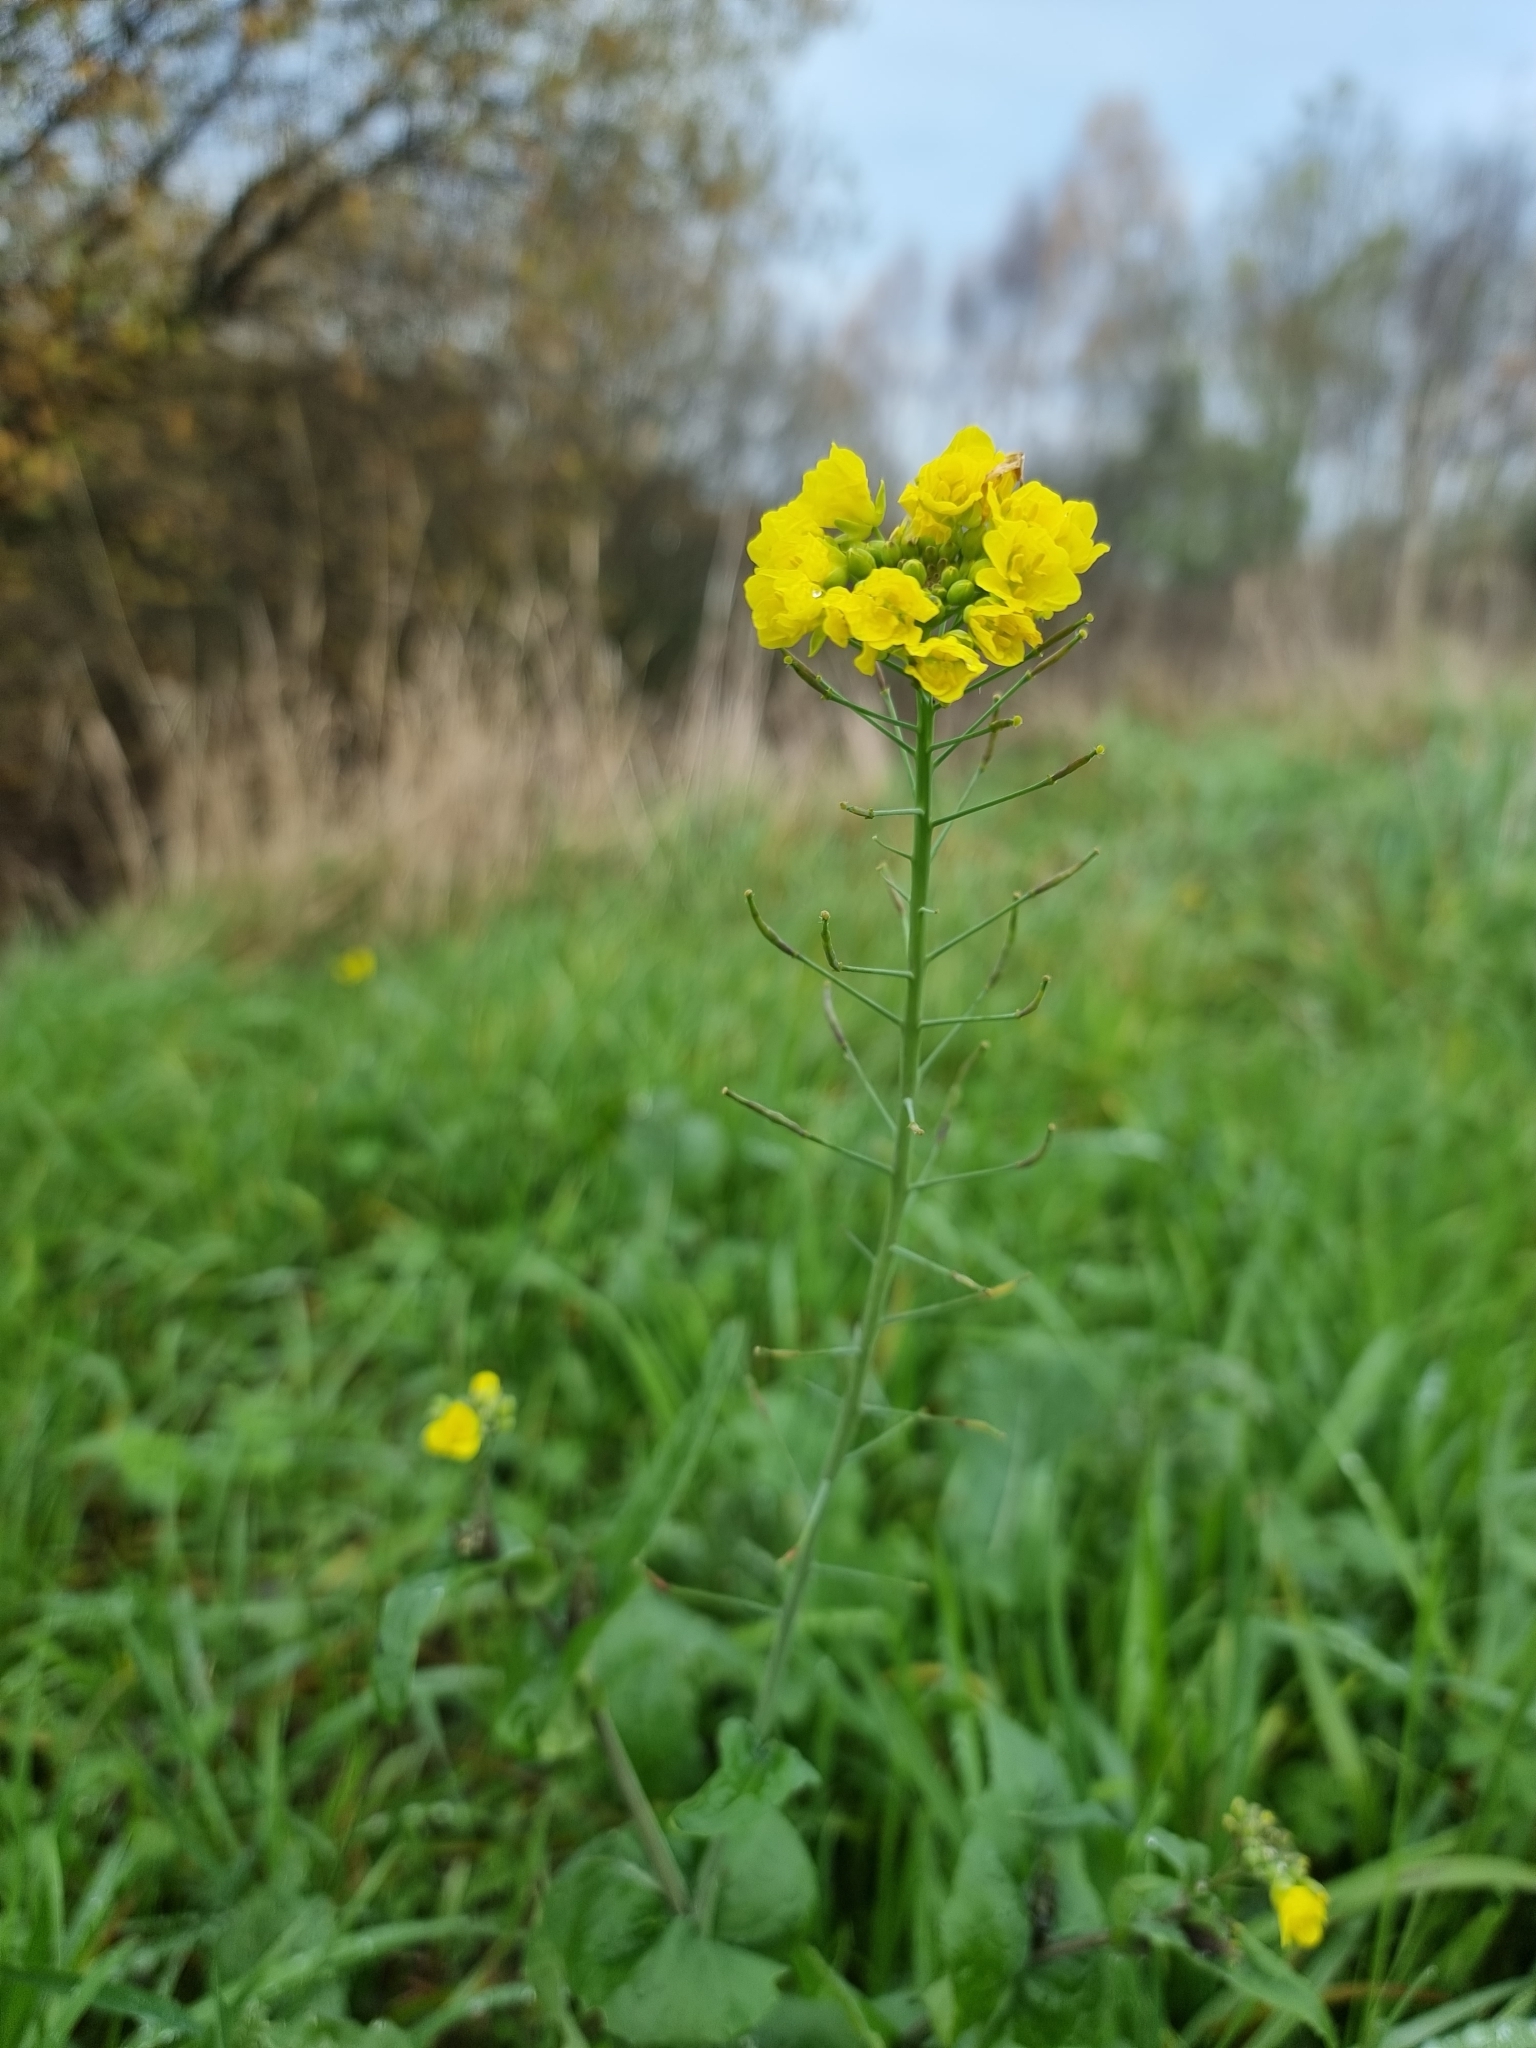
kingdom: Plantae
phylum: Tracheophyta
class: Magnoliopsida
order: Brassicales
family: Brassicaceae
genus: Brassica
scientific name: Brassica rapa
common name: Field mustard
